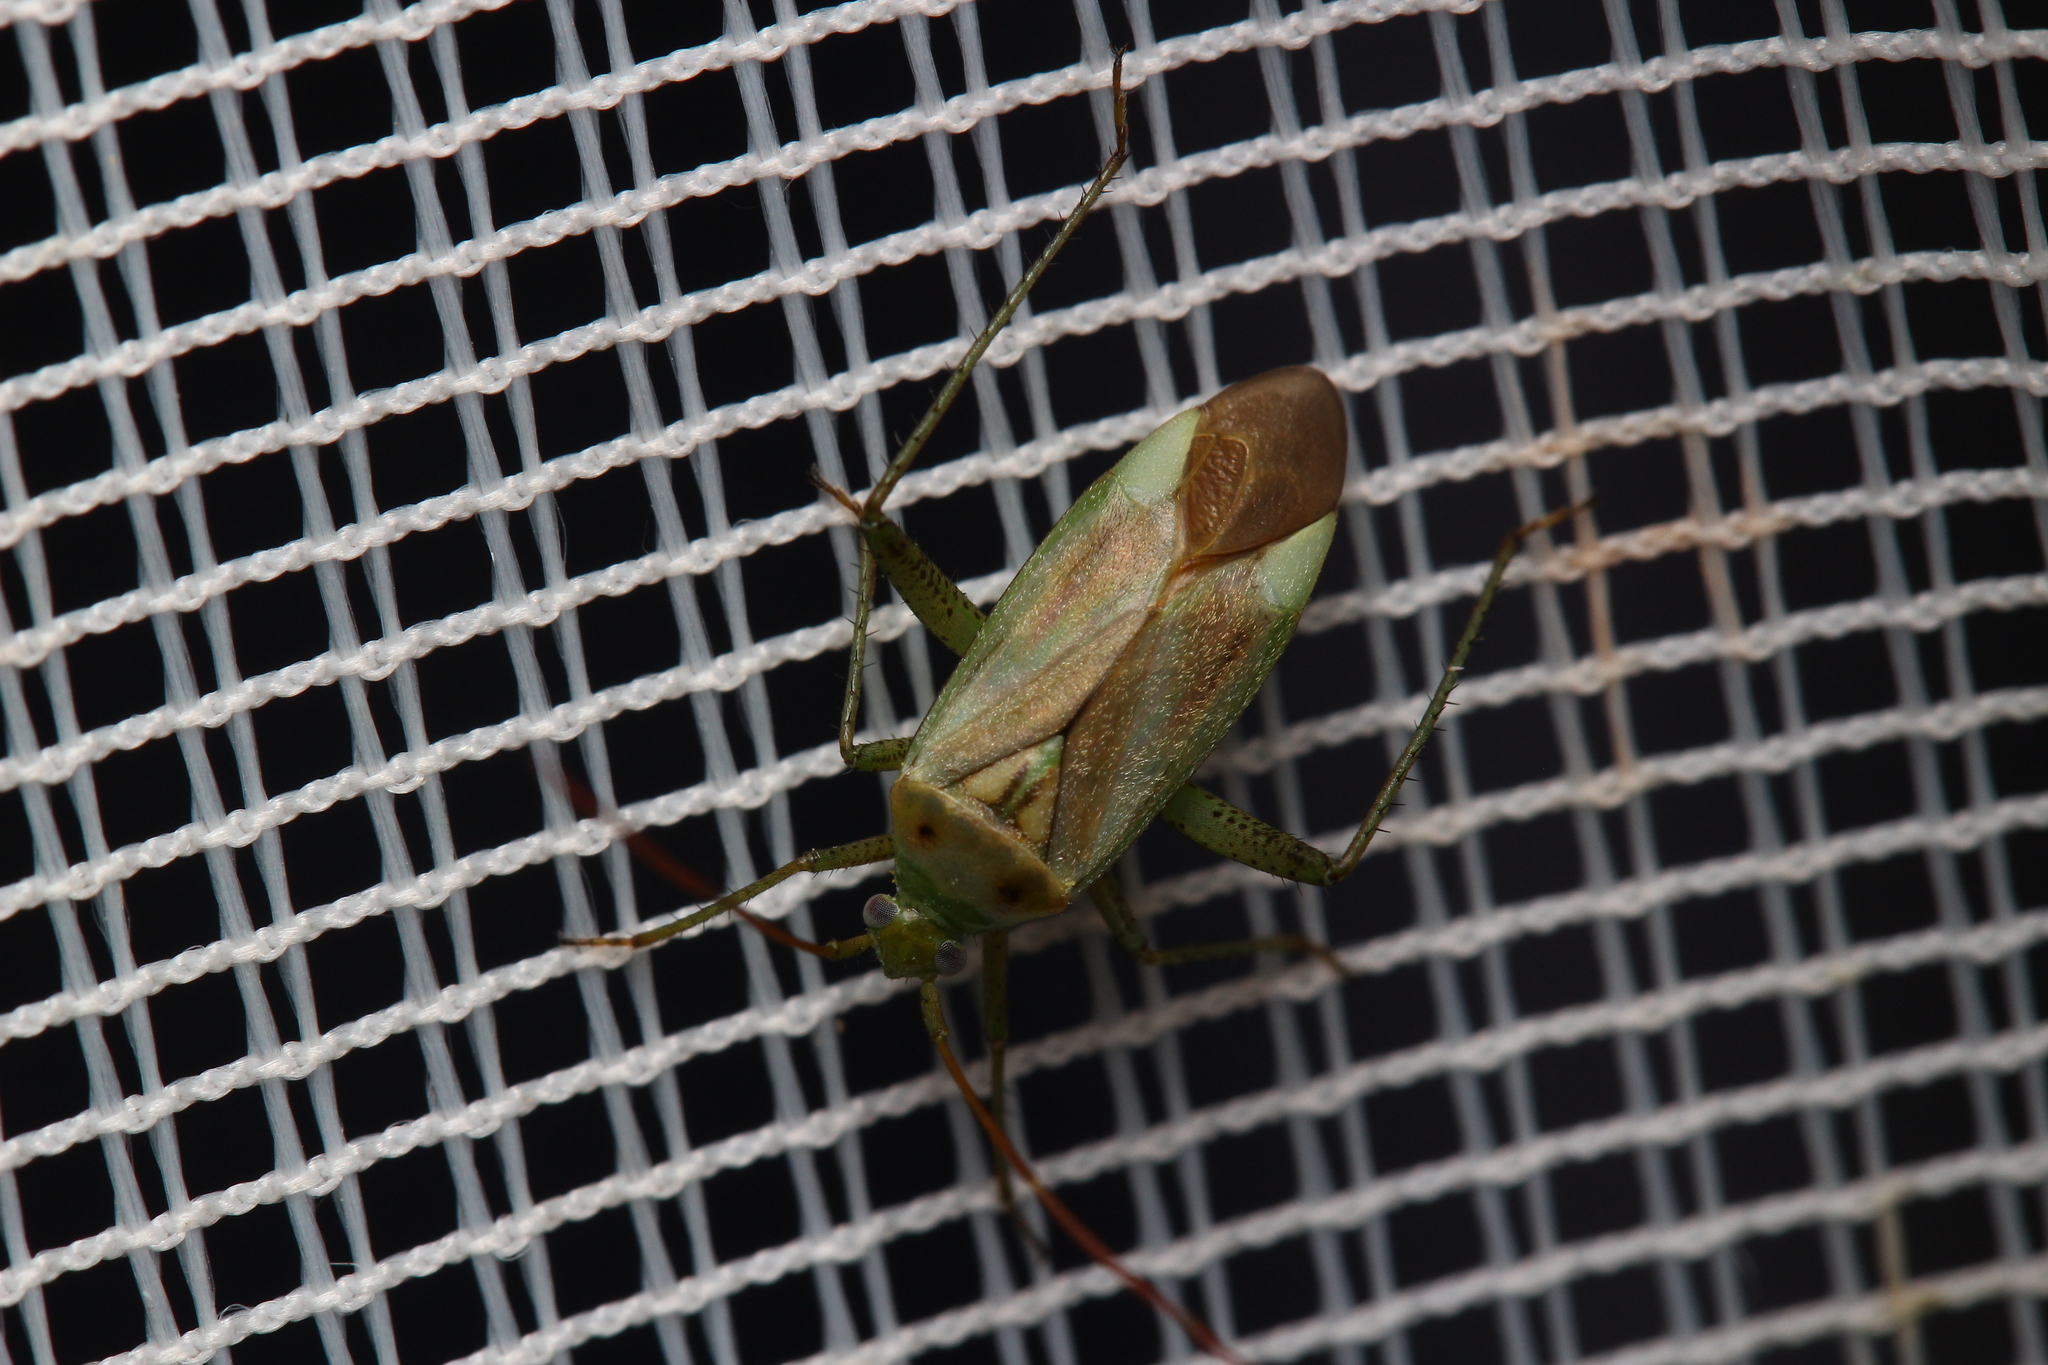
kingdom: Animalia
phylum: Arthropoda
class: Insecta
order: Hemiptera
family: Miridae
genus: Adelphocoris
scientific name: Adelphocoris lineolatus
